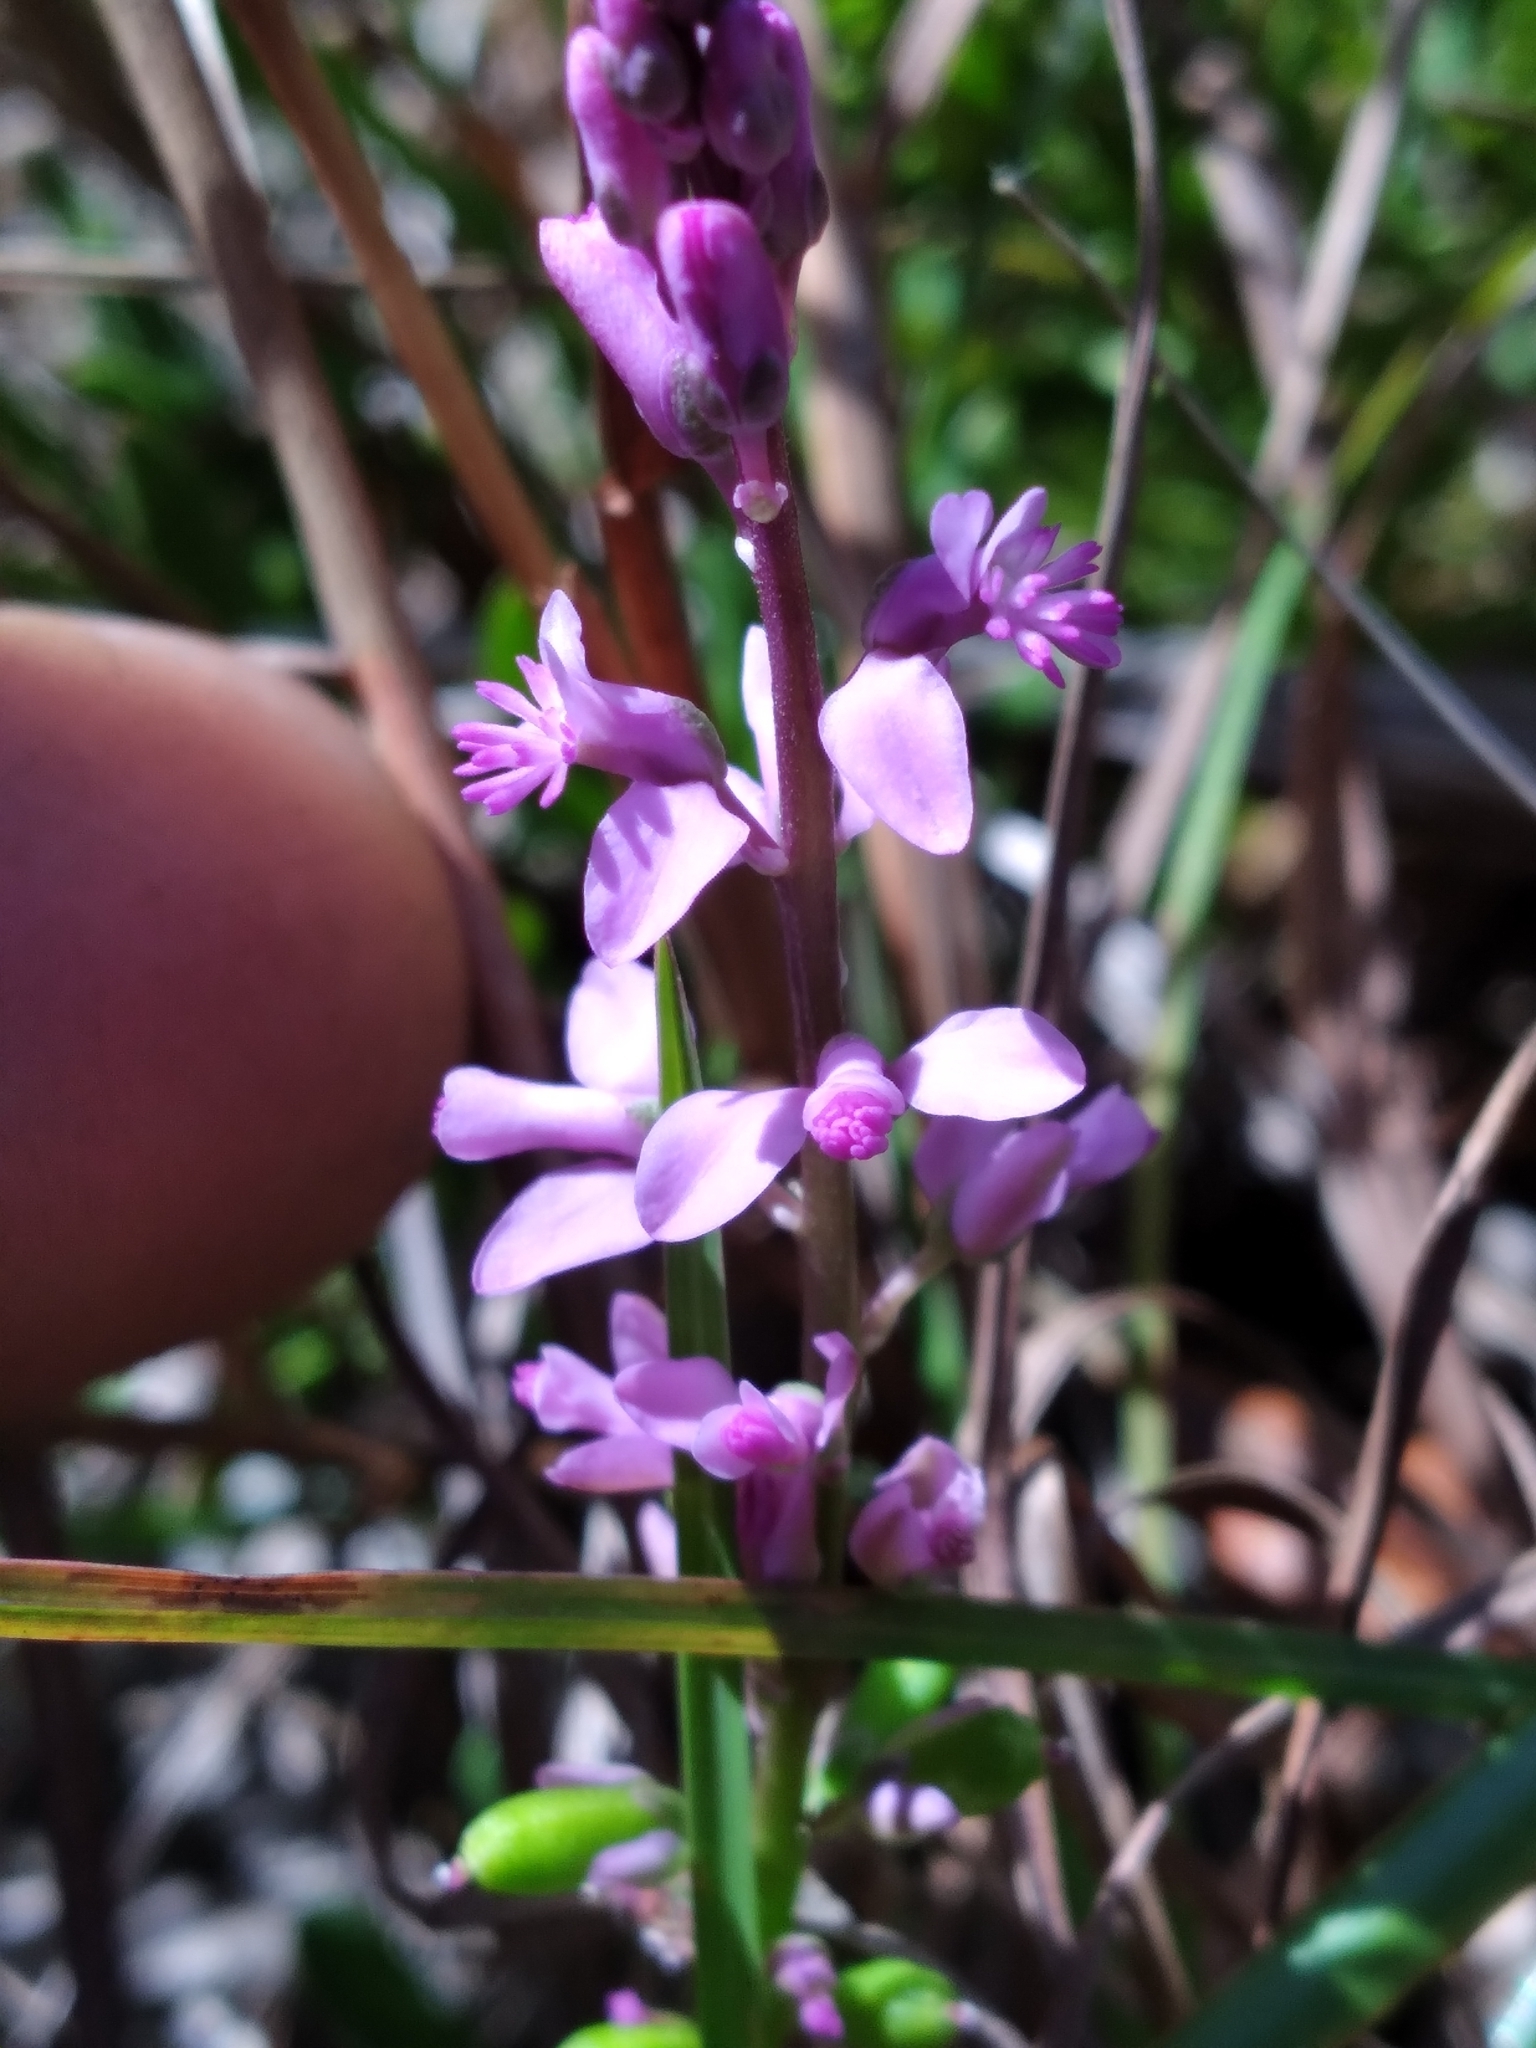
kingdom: Plantae
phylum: Tracheophyta
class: Magnoliopsida
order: Fabales
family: Polygalaceae
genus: Polygala
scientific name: Polygala lewtonii
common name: Lewton's polygala
